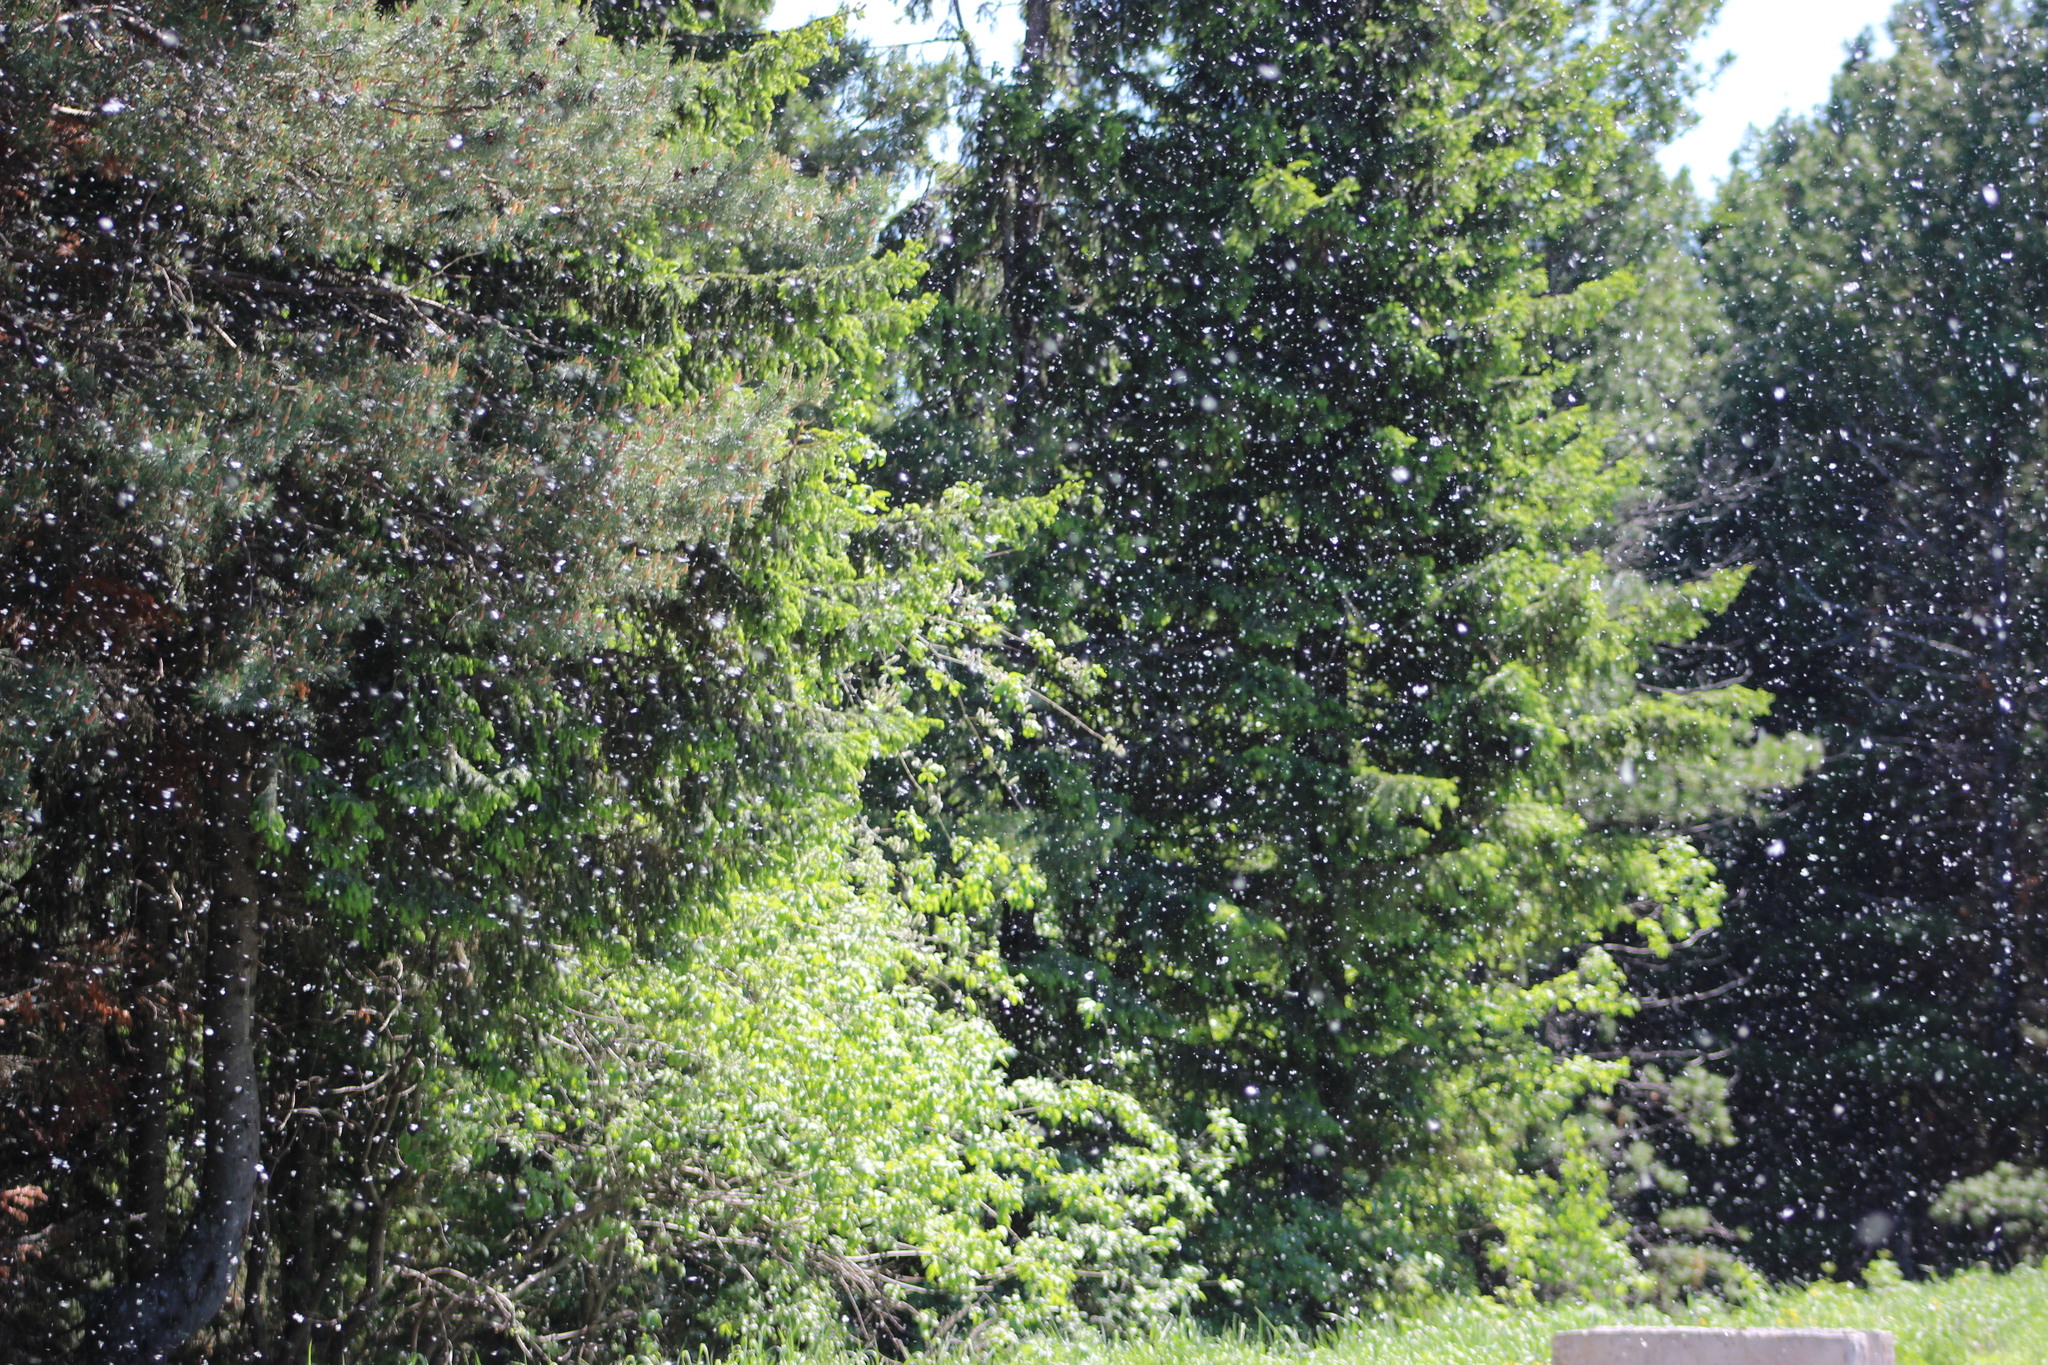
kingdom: Plantae
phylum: Tracheophyta
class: Magnoliopsida
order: Malpighiales
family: Salicaceae
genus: Populus
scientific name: Populus tremula
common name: European aspen
